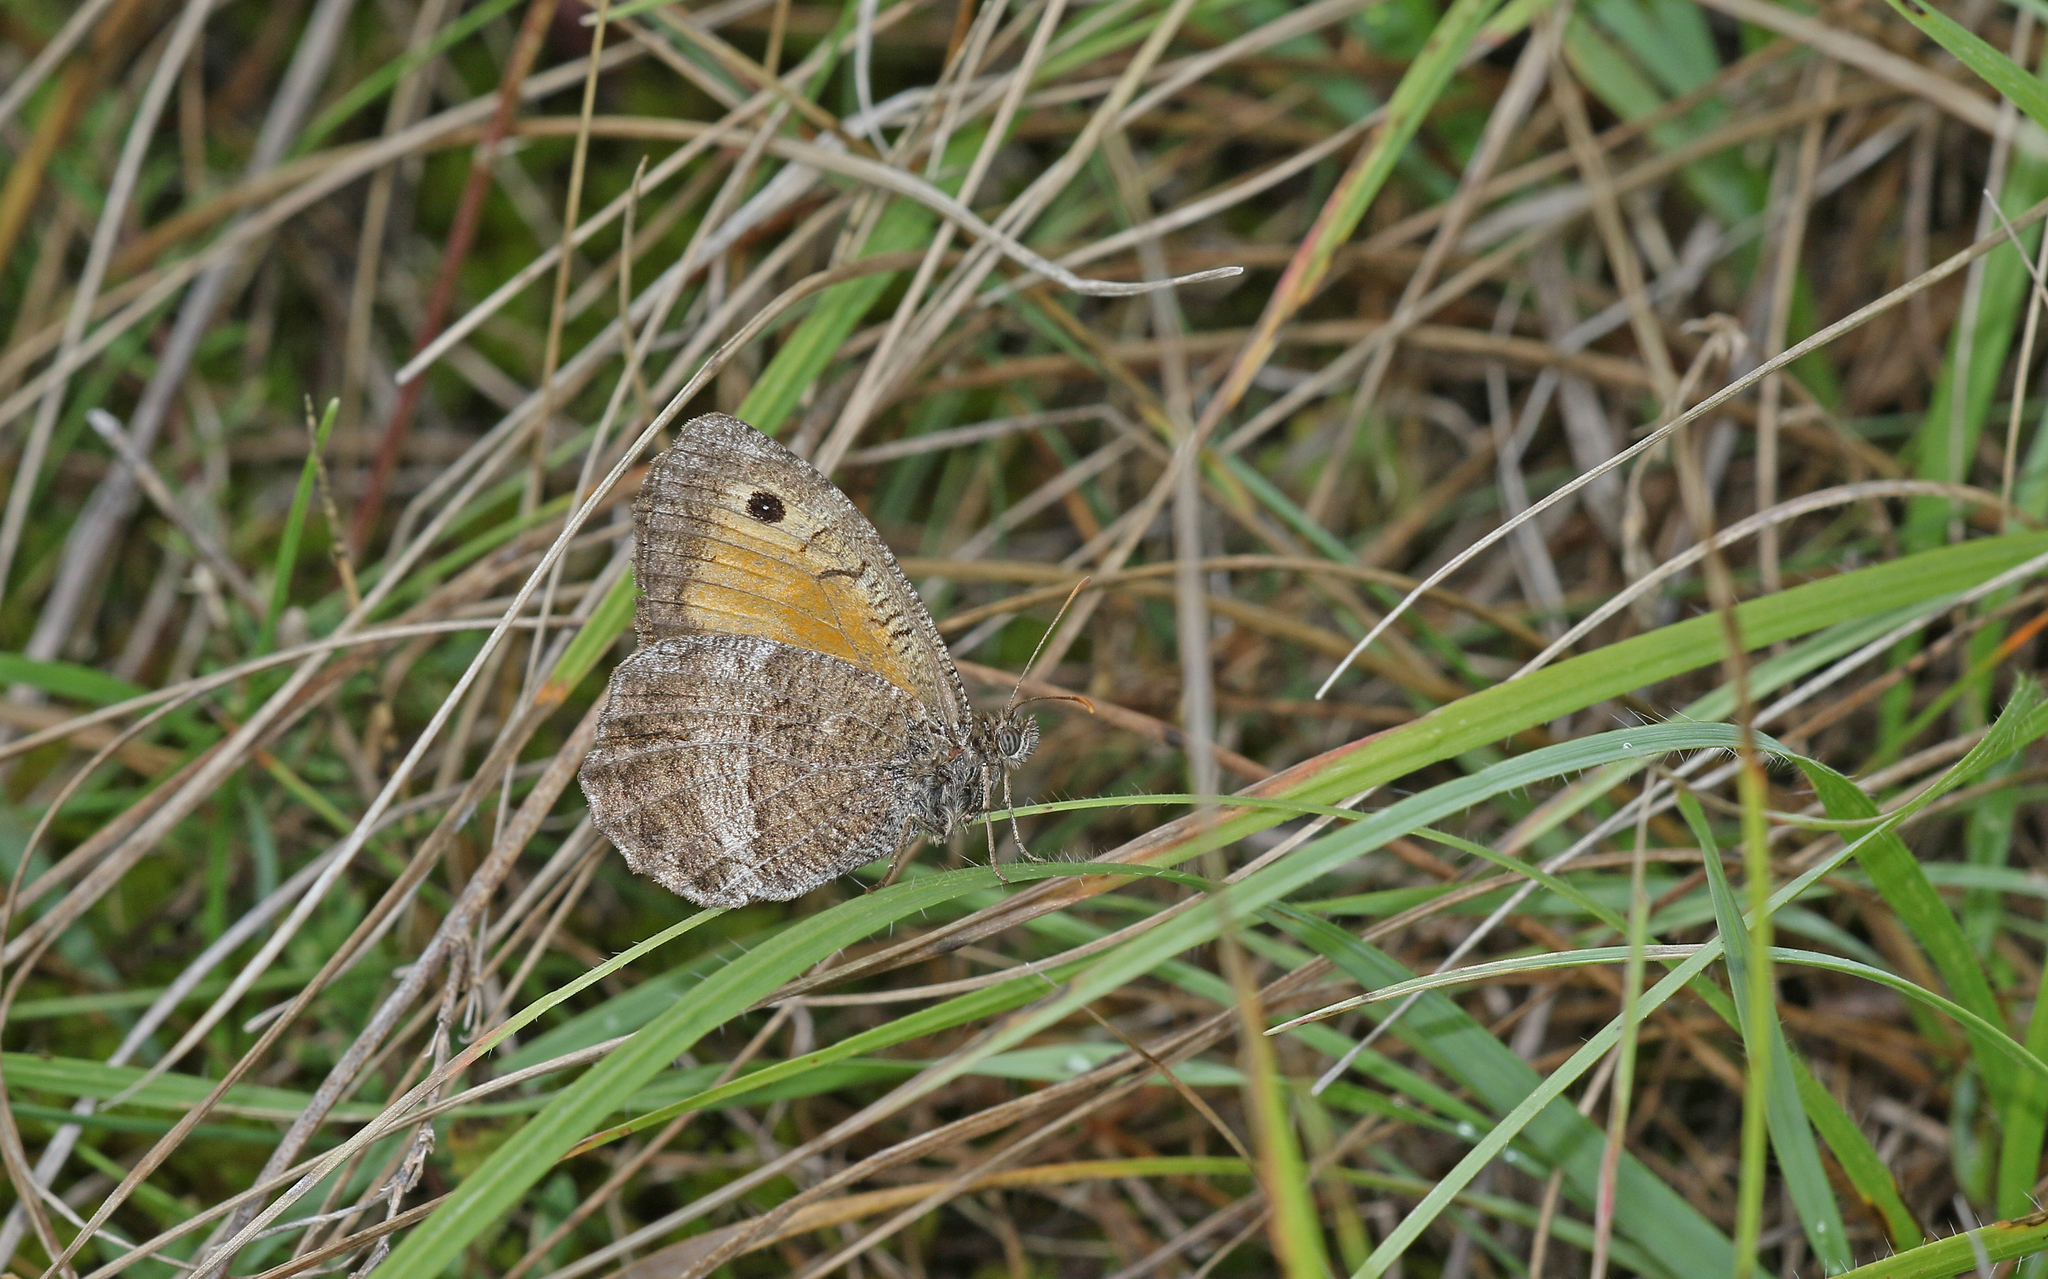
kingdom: Animalia
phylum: Arthropoda
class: Insecta
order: Lepidoptera
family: Nymphalidae
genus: Arethusana
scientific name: Arethusana arethusa
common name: False grayling
